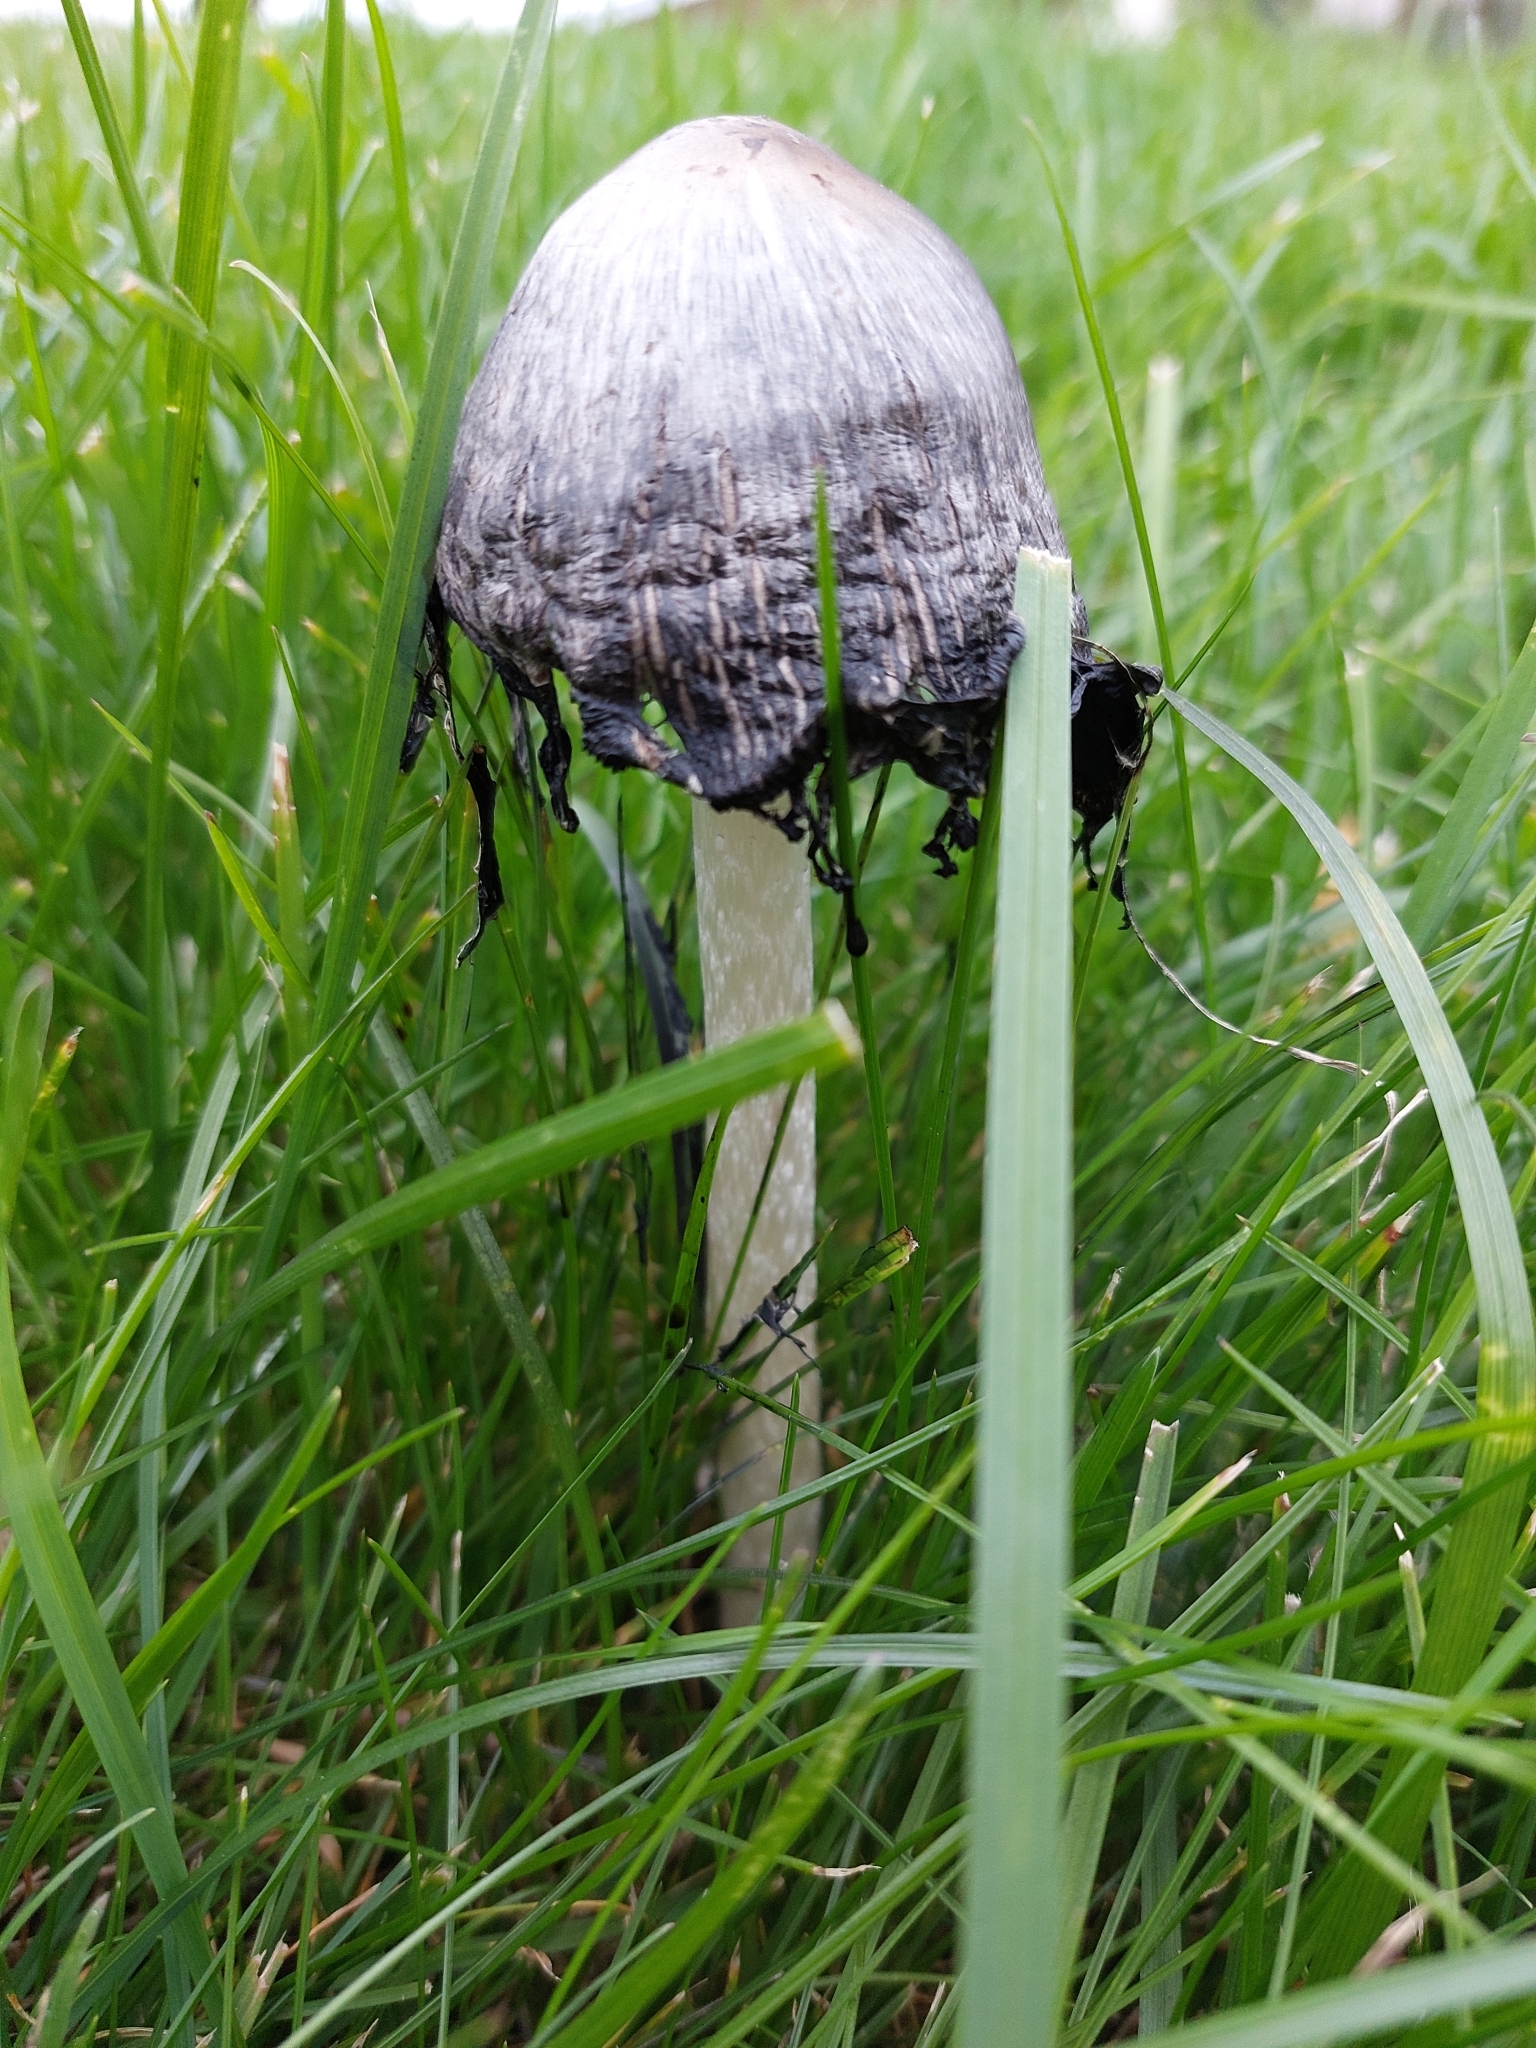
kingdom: Fungi
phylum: Basidiomycota
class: Agaricomycetes
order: Agaricales
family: Agaricaceae
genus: Coprinus
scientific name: Coprinus comatus
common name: Lawyer's wig
